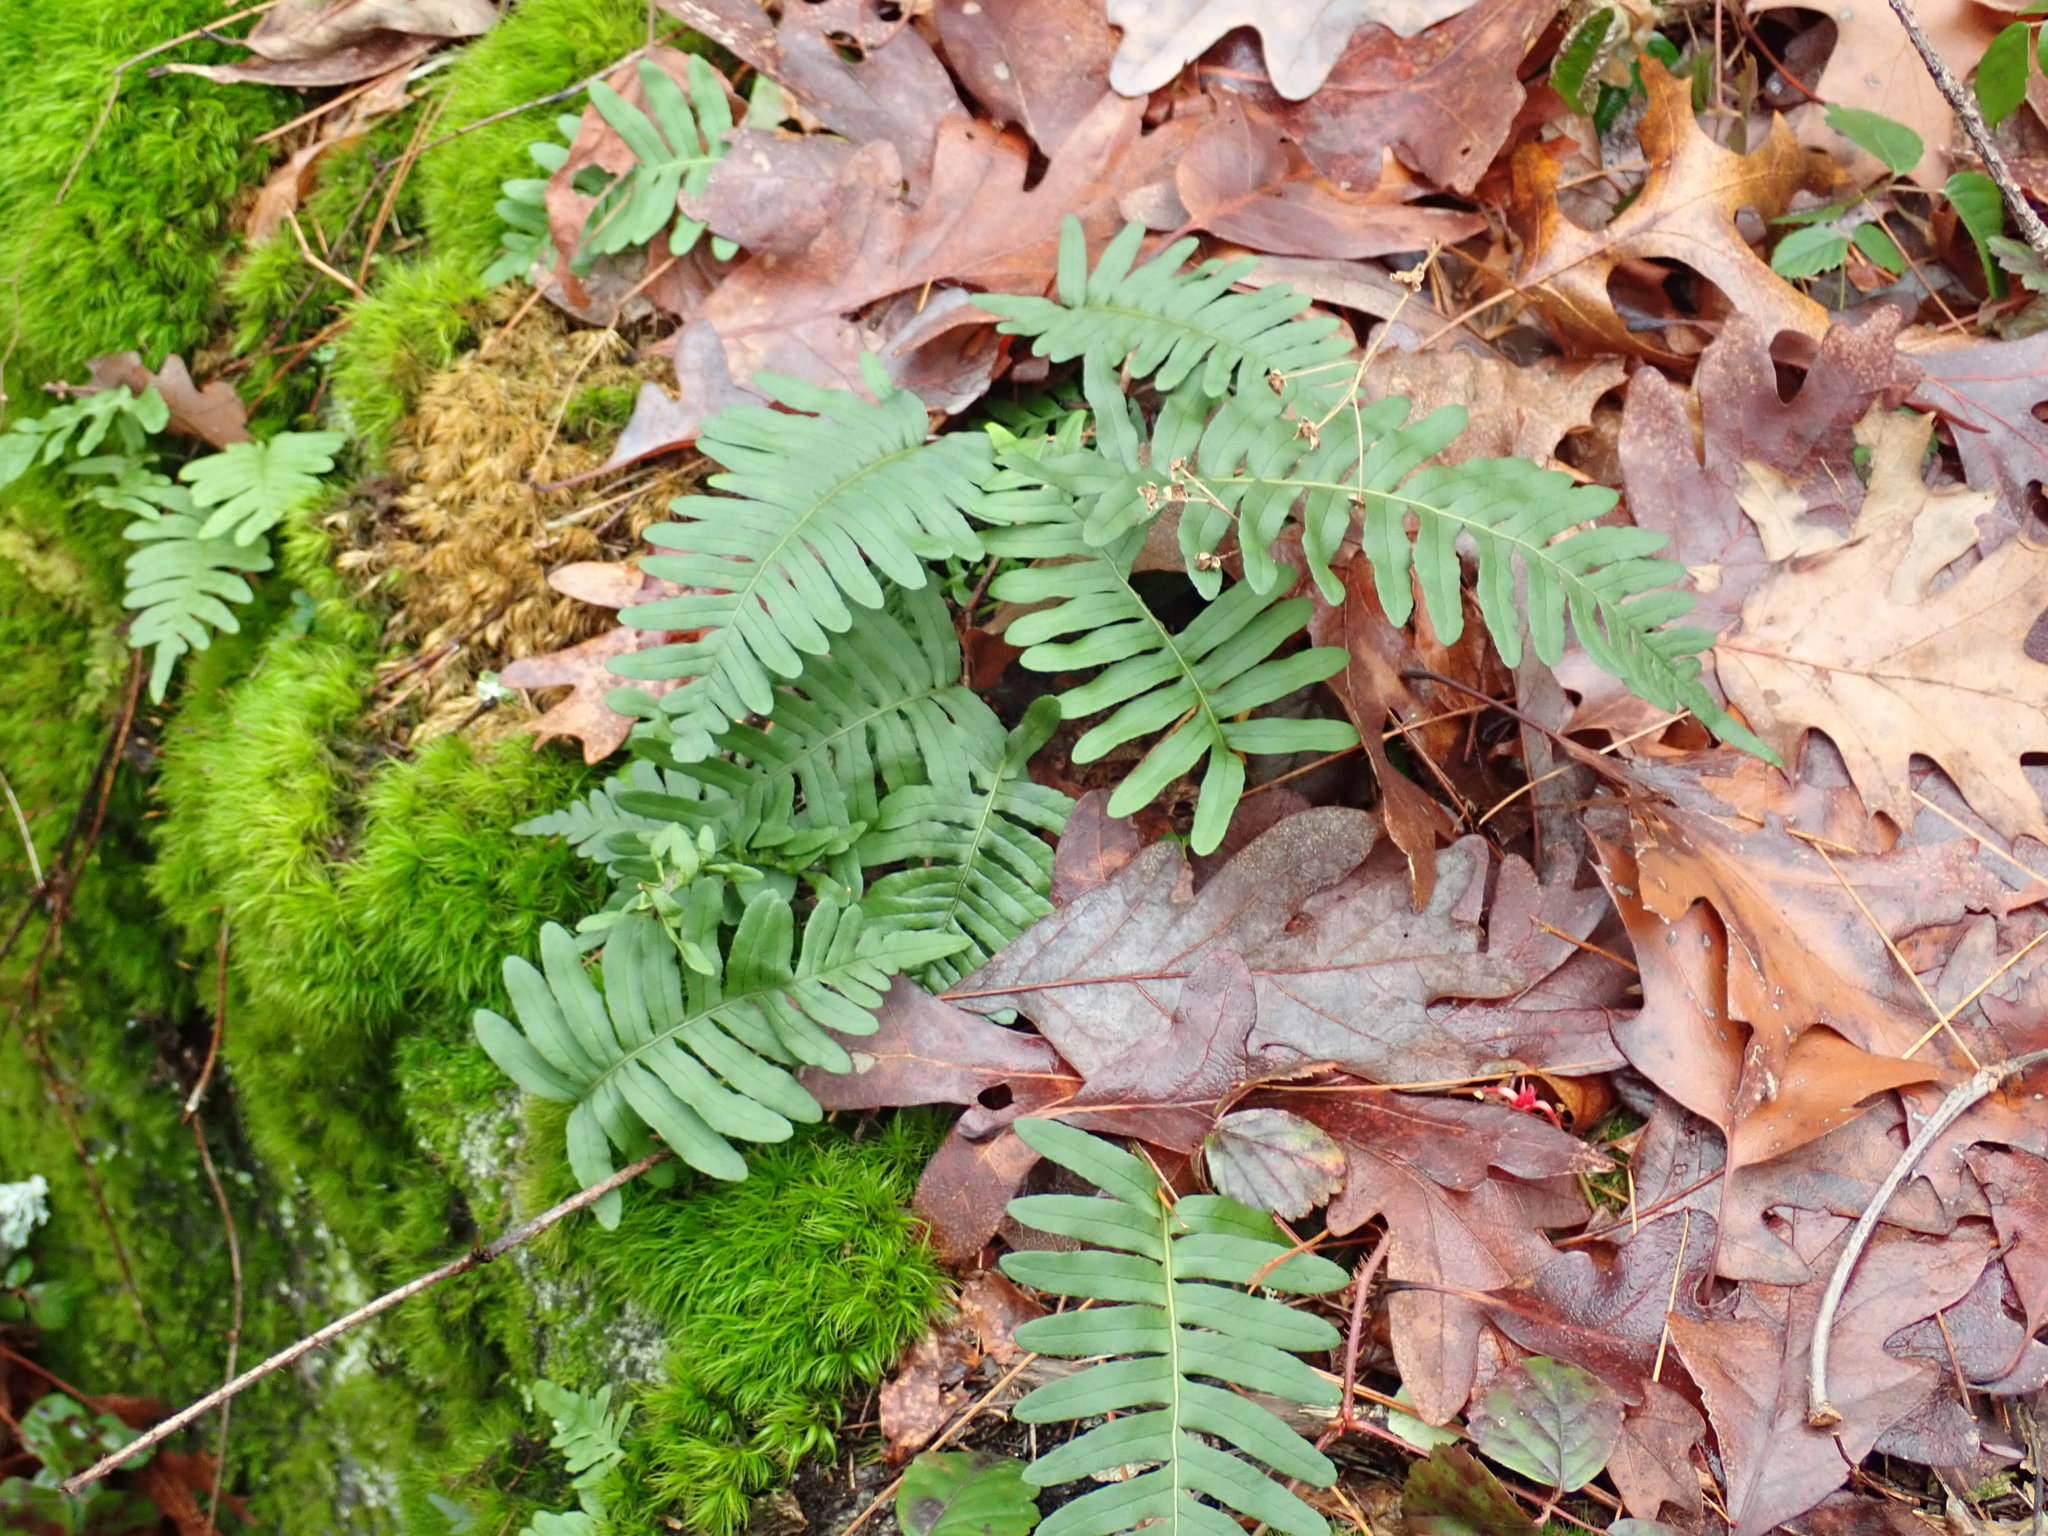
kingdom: Plantae
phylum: Tracheophyta
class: Polypodiopsida
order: Polypodiales
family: Polypodiaceae
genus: Polypodium
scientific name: Polypodium
